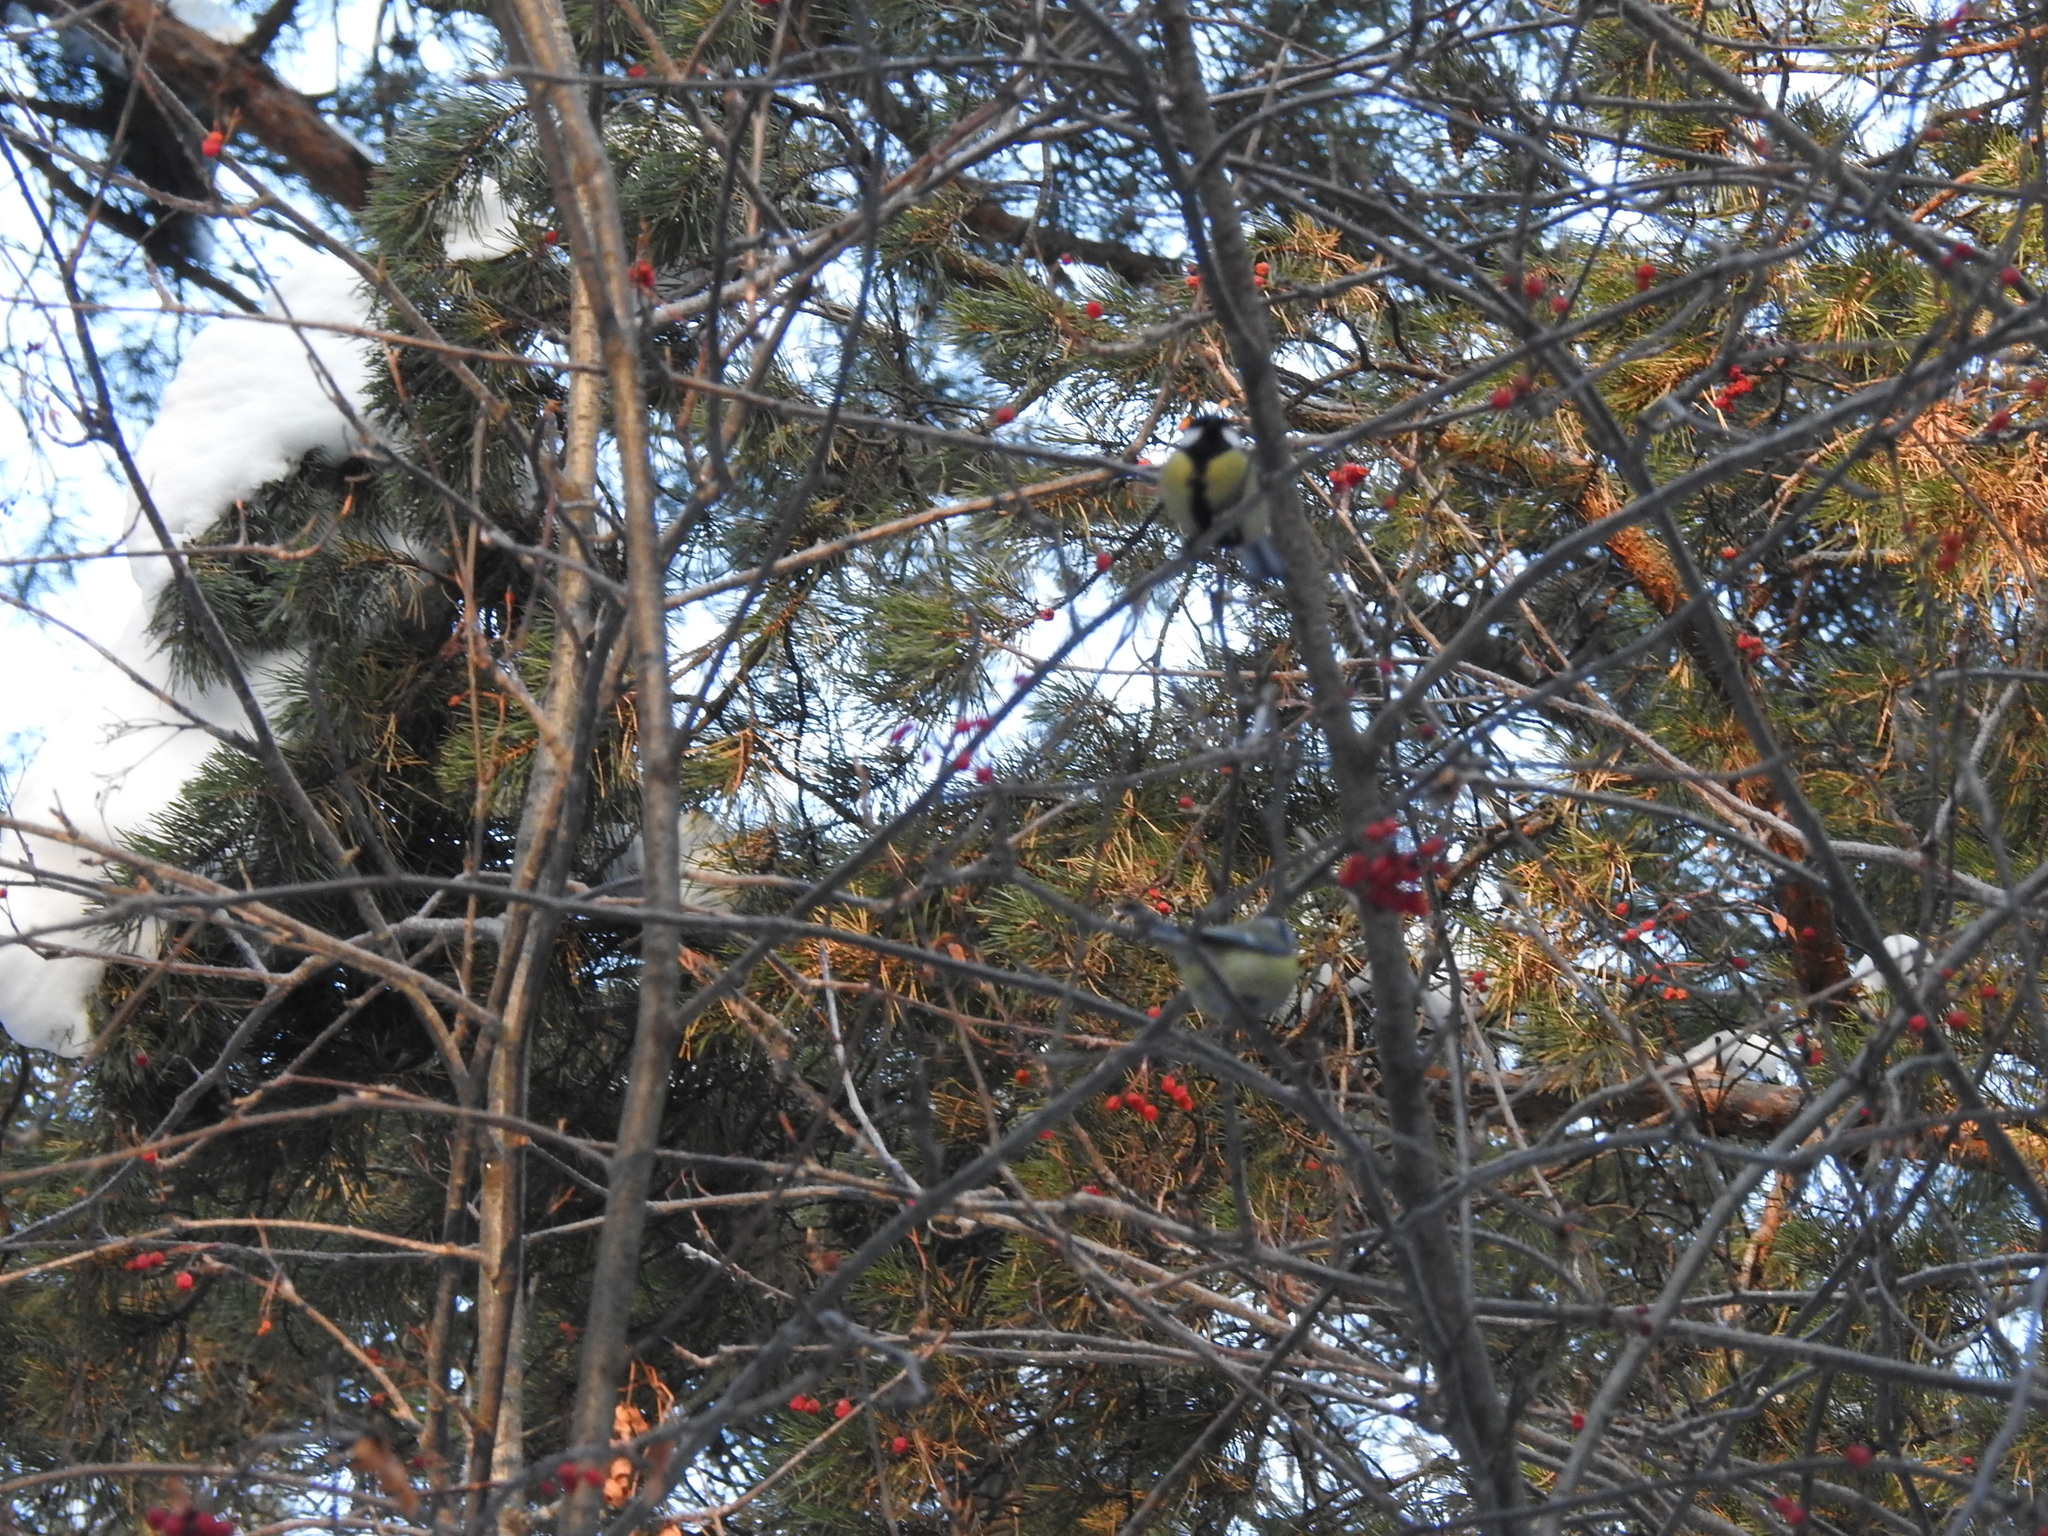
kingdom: Animalia
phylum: Chordata
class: Aves
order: Passeriformes
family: Paridae
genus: Parus
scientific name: Parus major
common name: Great tit
